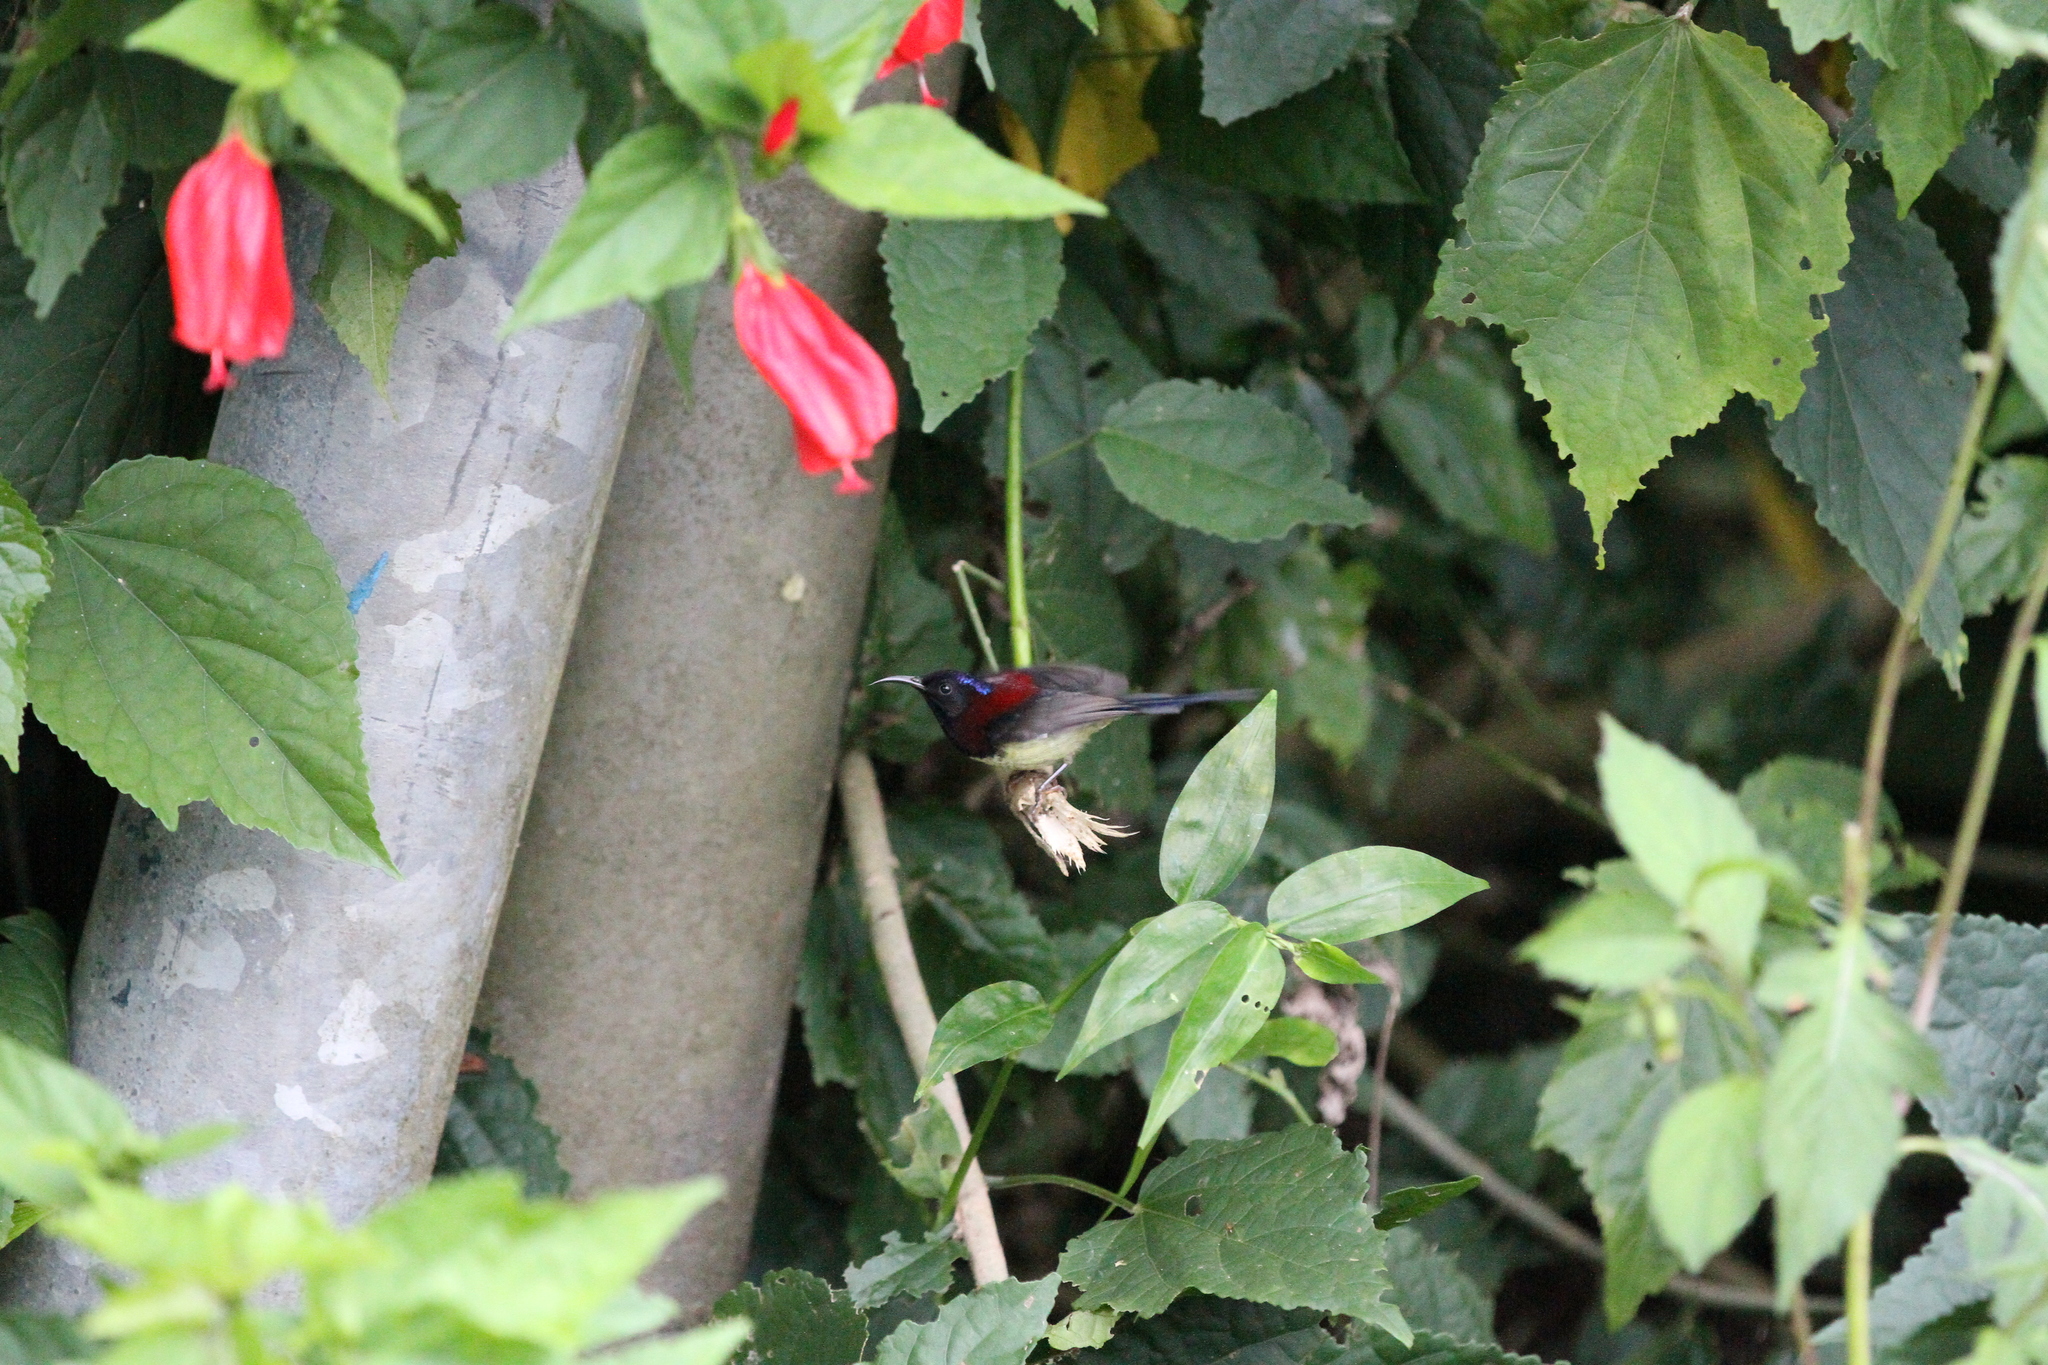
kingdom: Animalia
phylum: Chordata
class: Aves
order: Passeriformes
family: Nectariniidae
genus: Aethopyga
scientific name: Aethopyga saturata
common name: Black-throated sunbird
